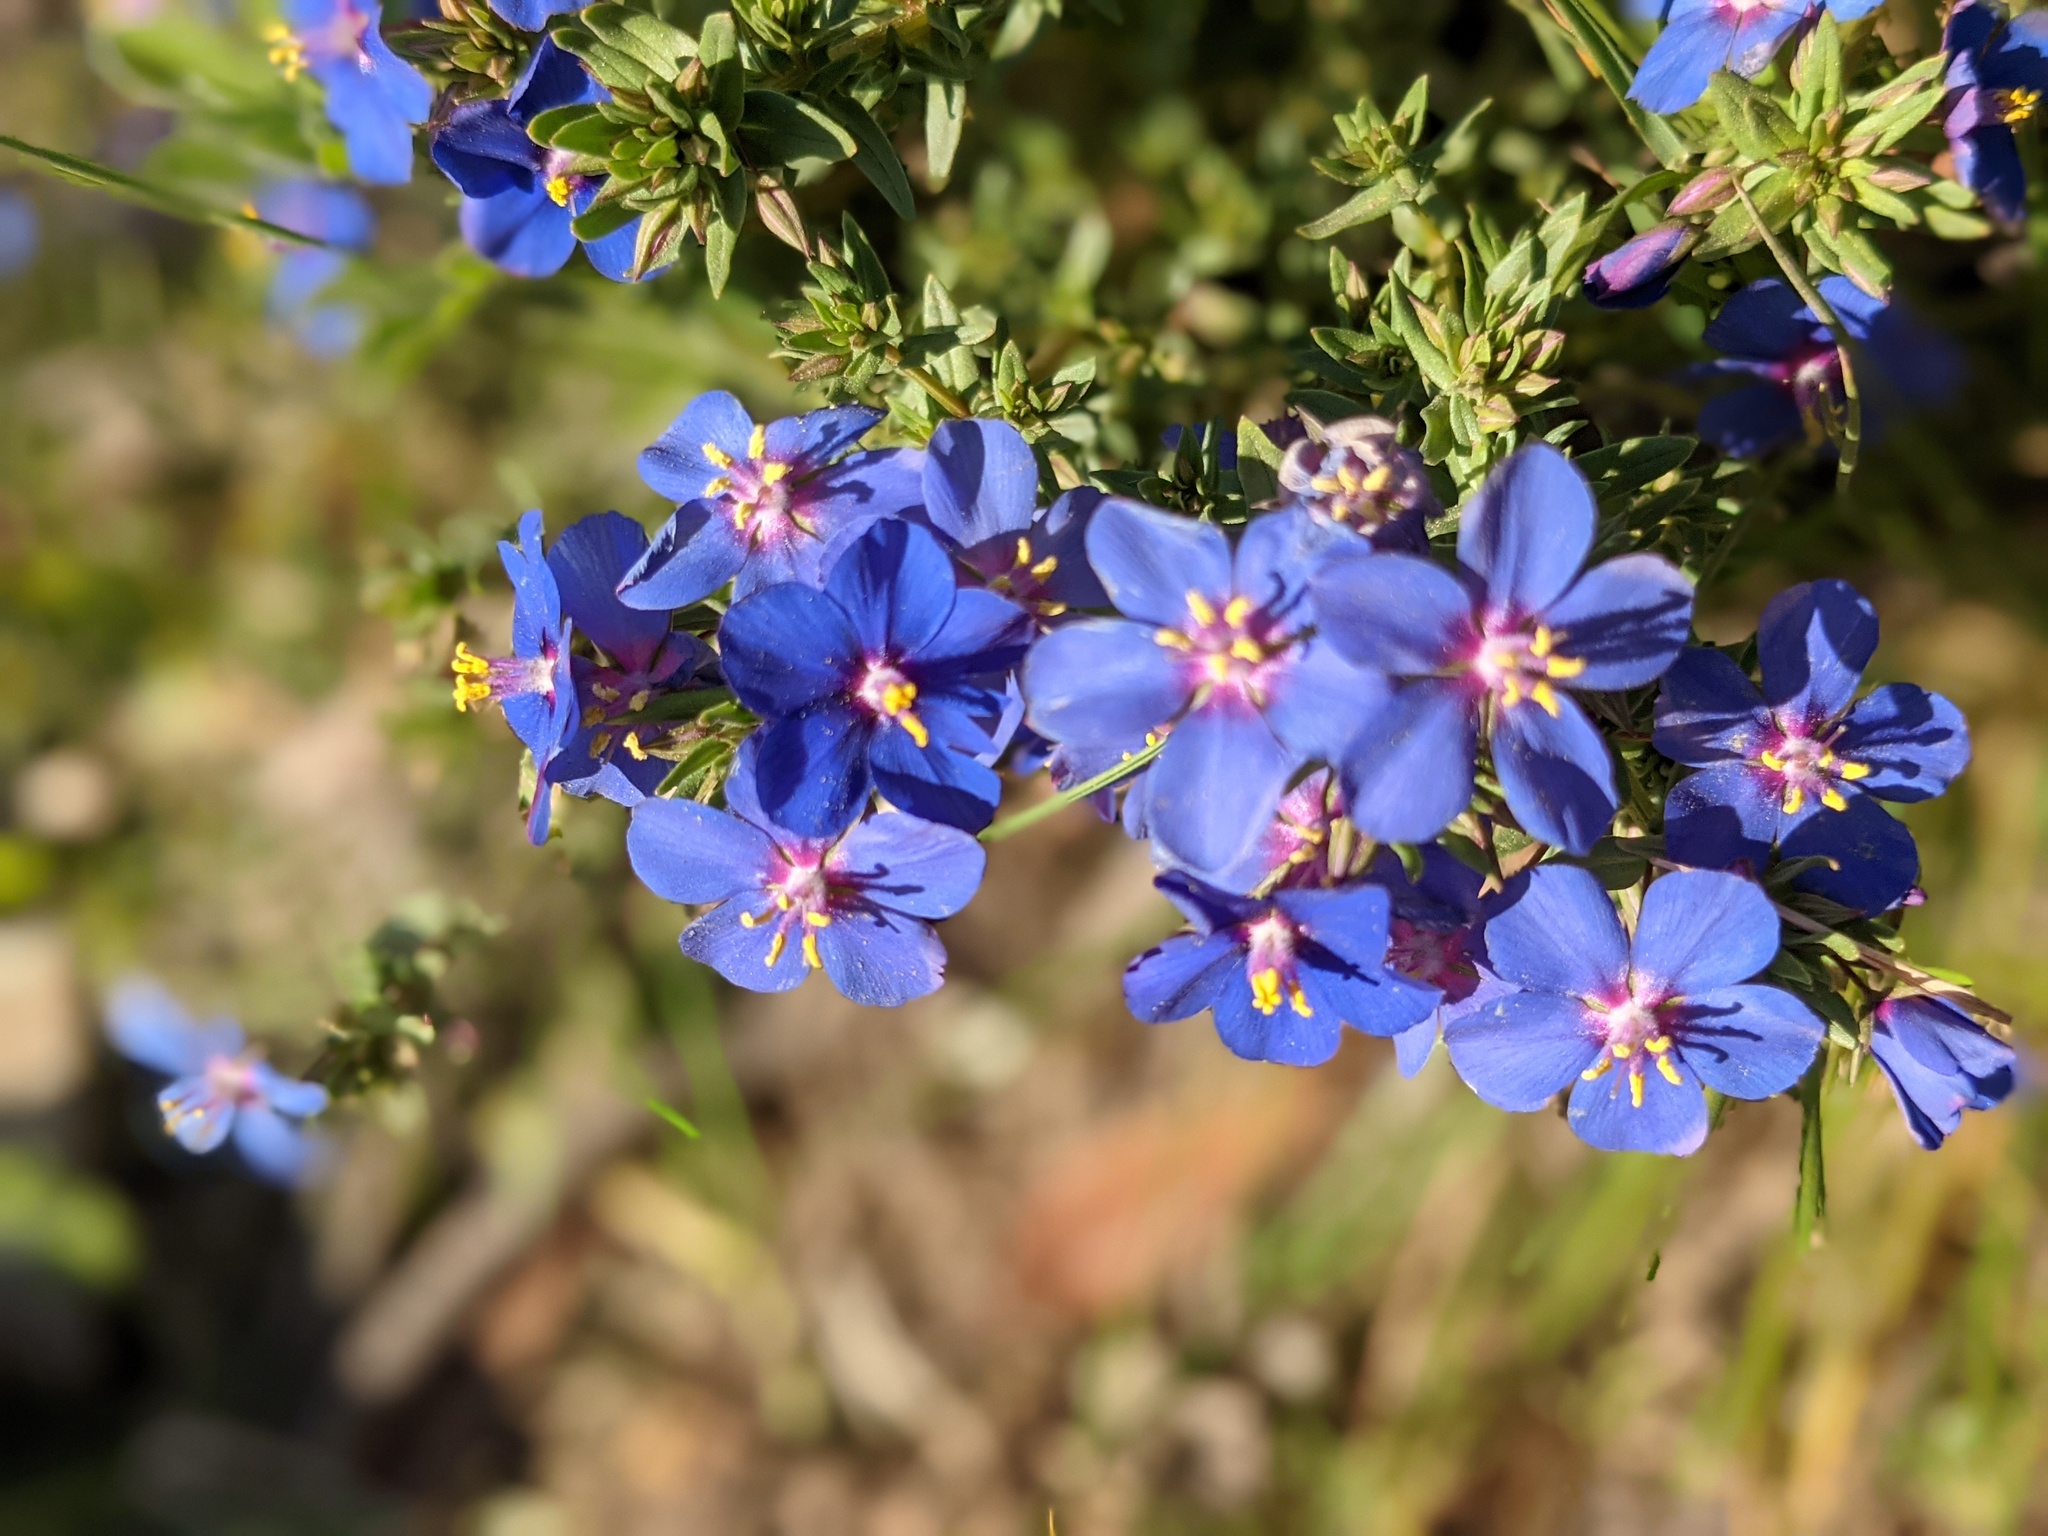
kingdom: Plantae
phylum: Tracheophyta
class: Magnoliopsida
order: Ericales
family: Primulaceae
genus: Lysimachia
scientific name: Lysimachia monelli
